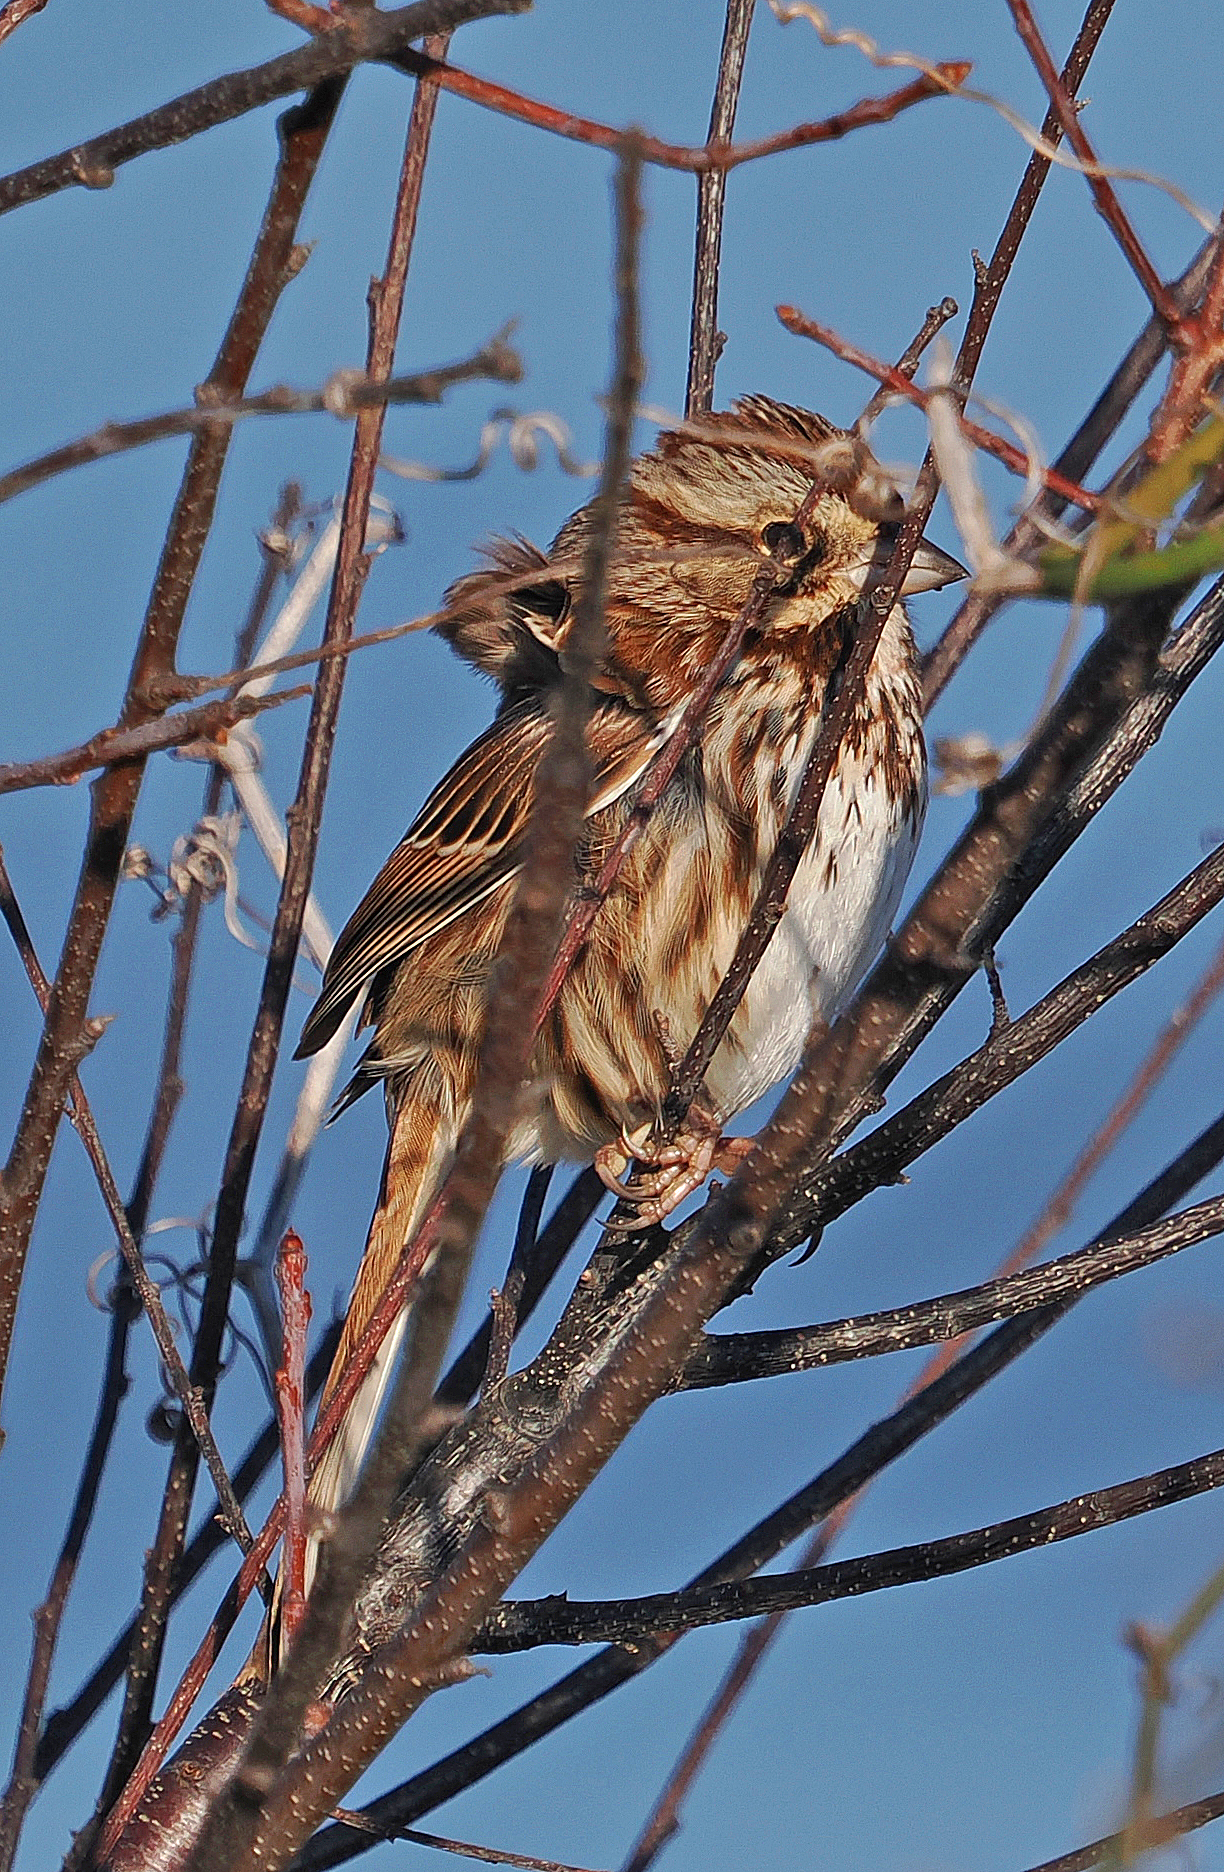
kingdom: Animalia
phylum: Chordata
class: Aves
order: Passeriformes
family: Passerellidae
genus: Melospiza
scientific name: Melospiza melodia
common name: Song sparrow
